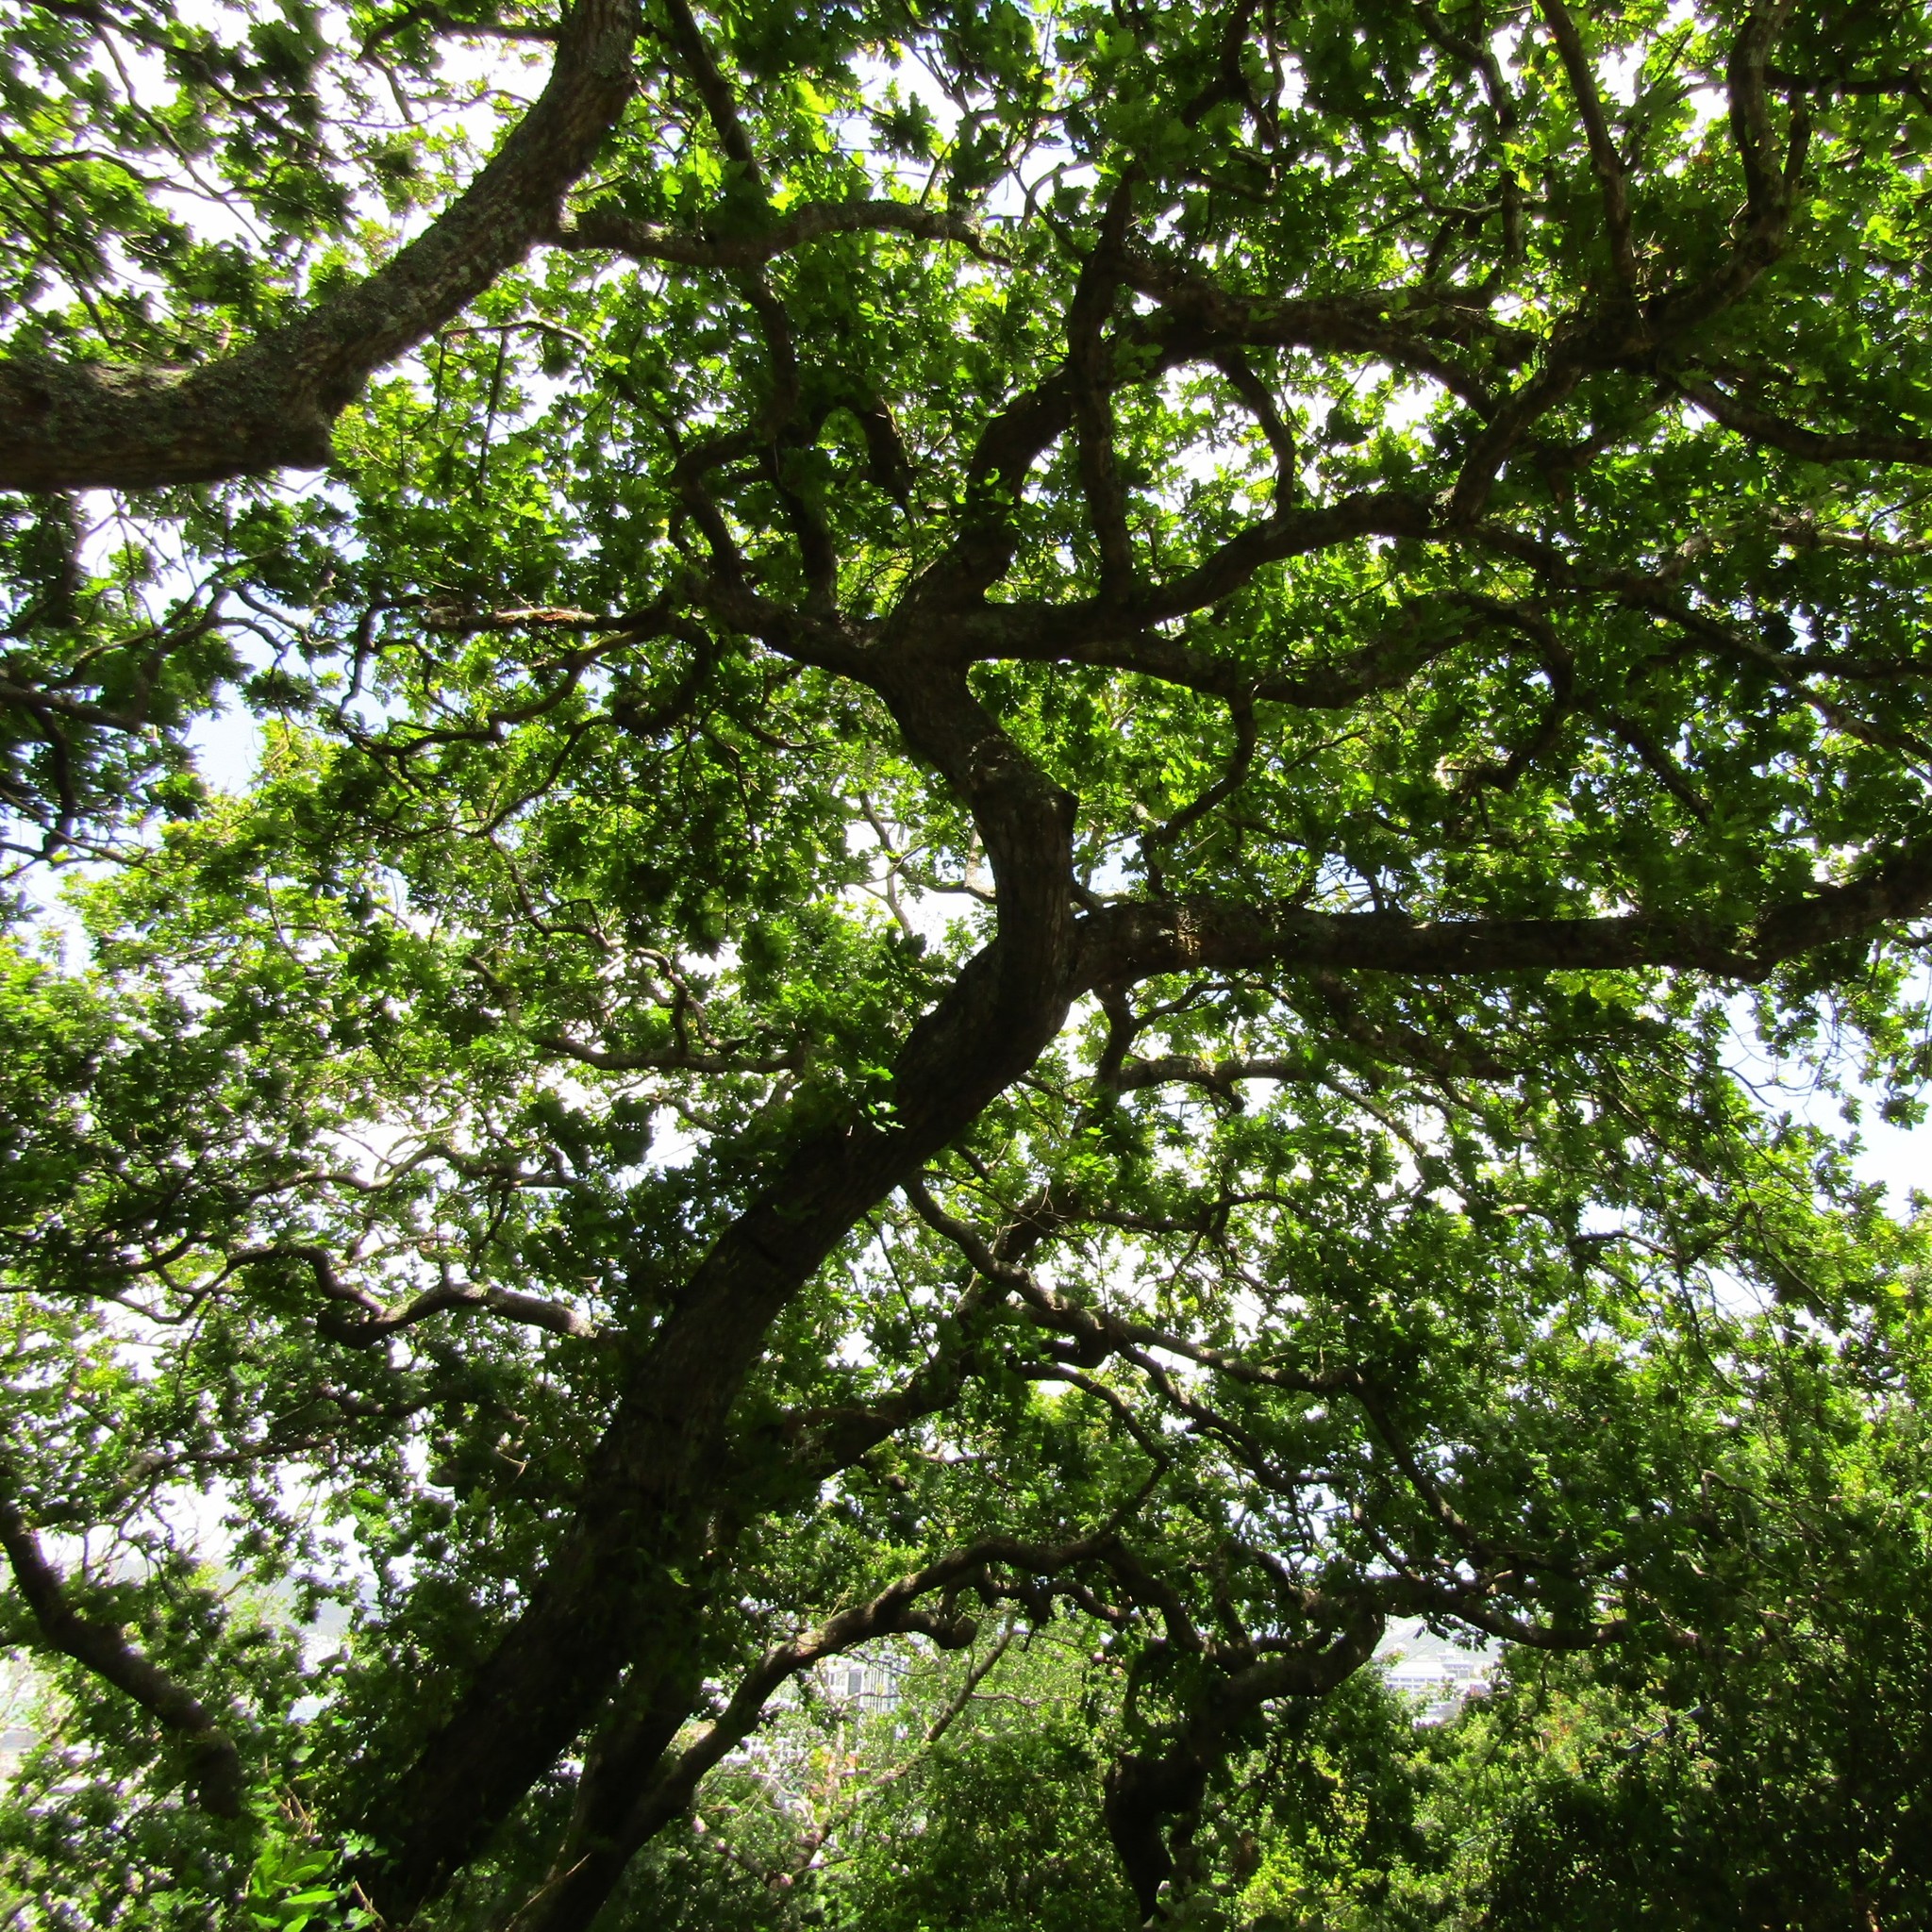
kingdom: Animalia
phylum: Chordata
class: Aves
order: Psittaciformes
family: Psittacidae
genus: Nestor
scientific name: Nestor meridionalis
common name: New zealand kaka
